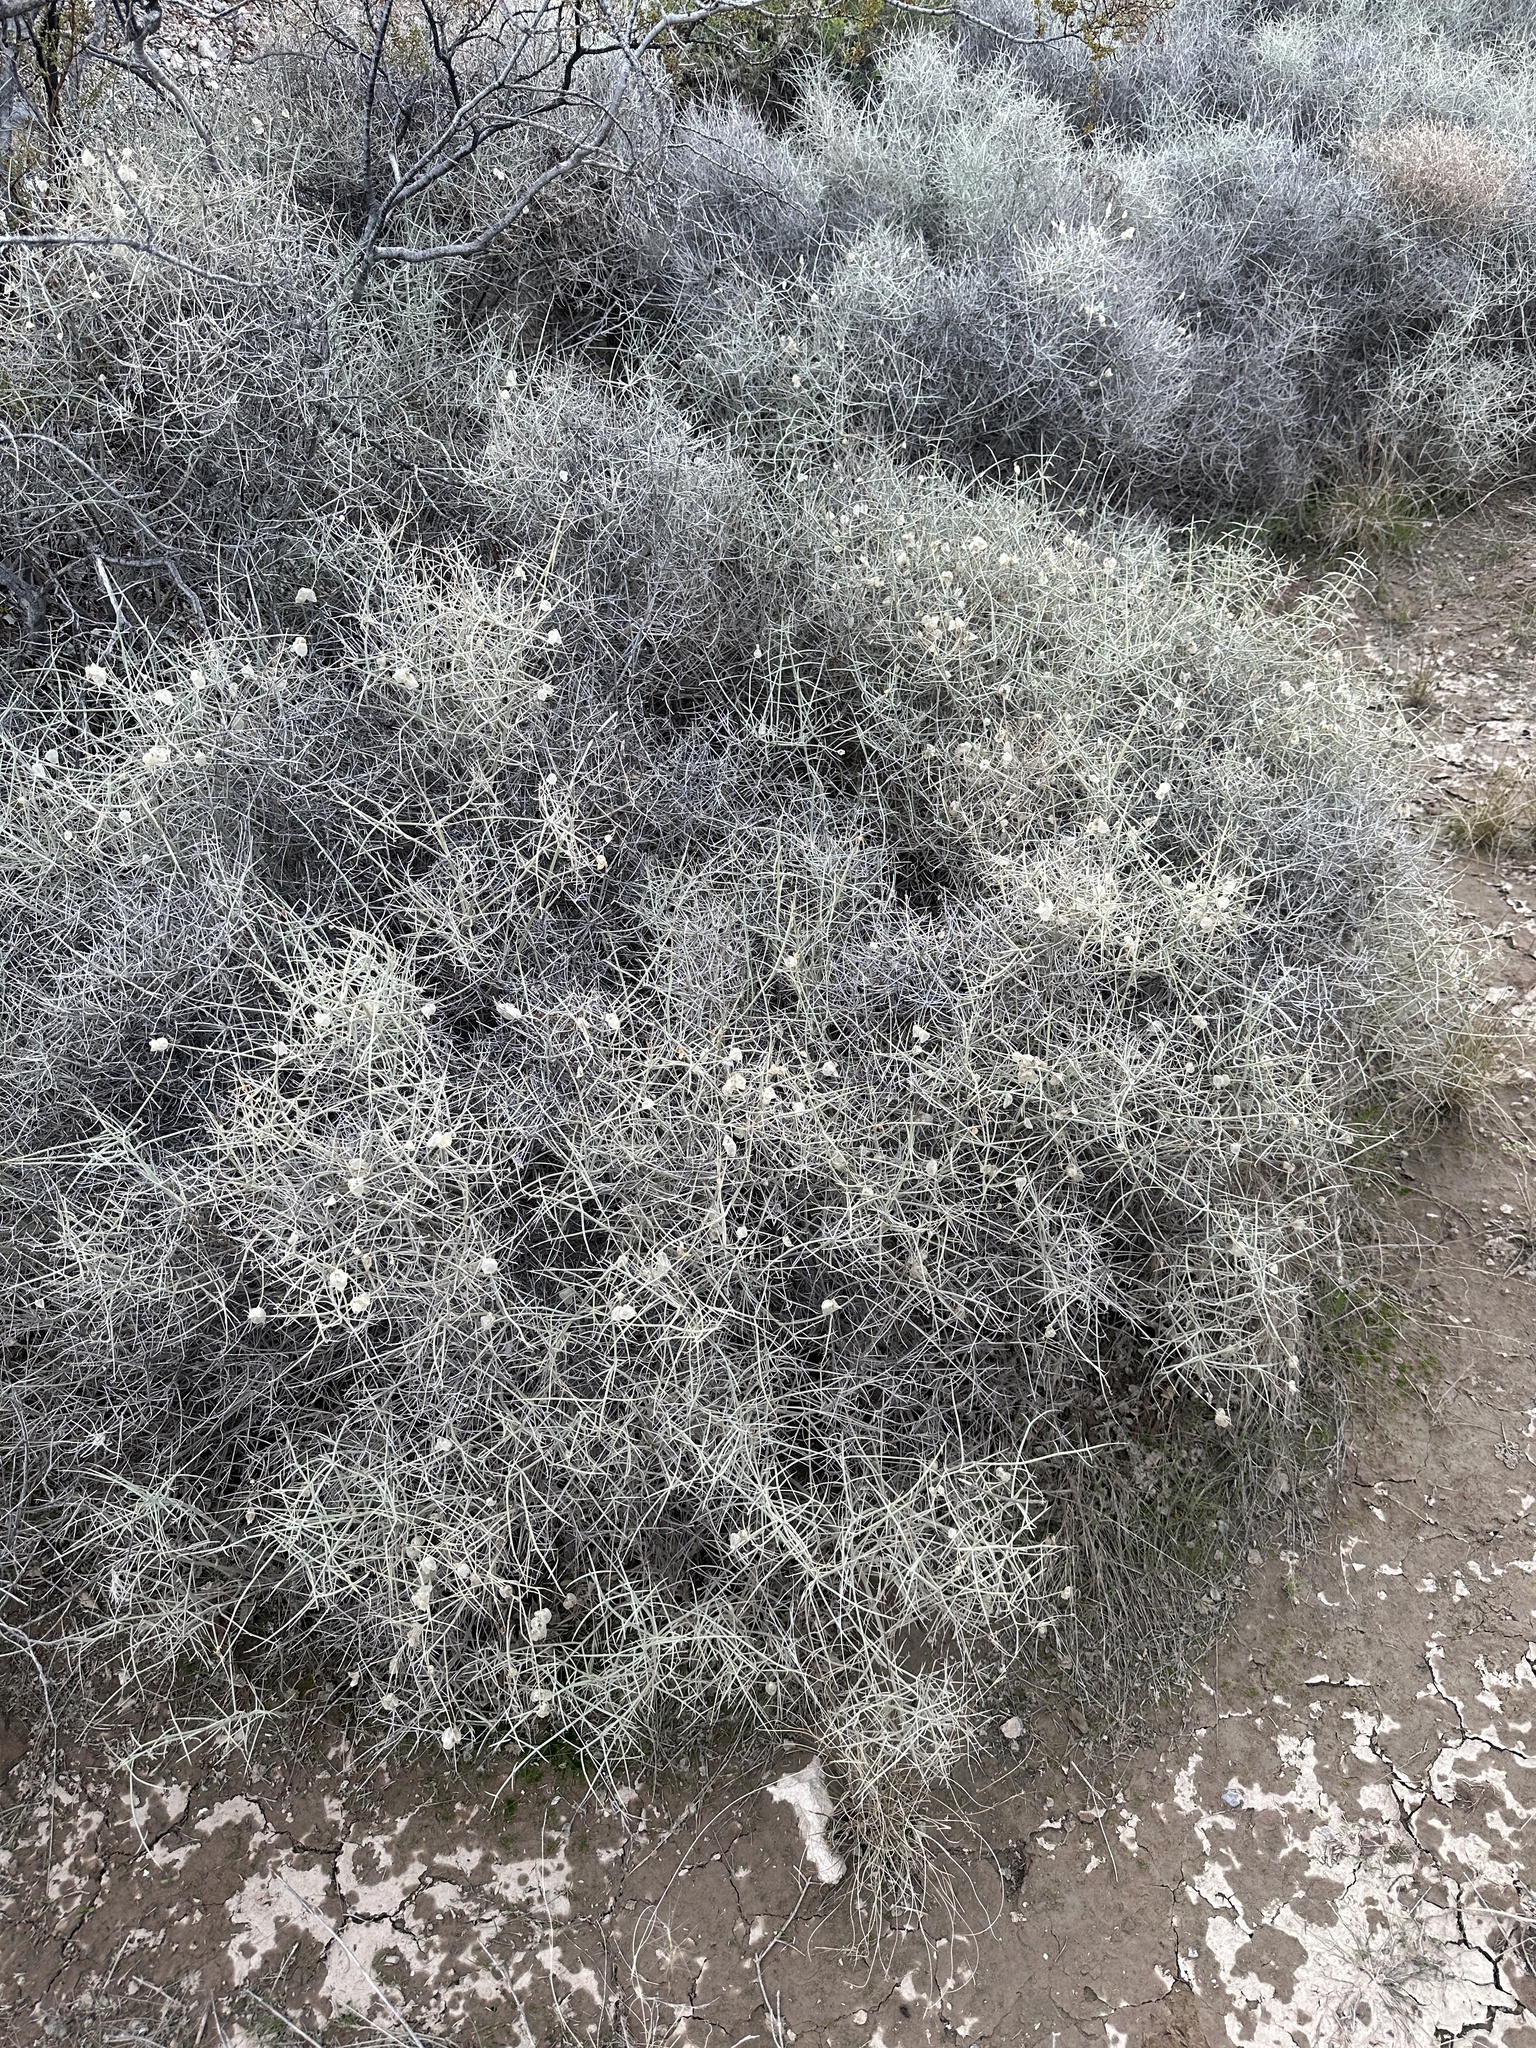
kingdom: Plantae
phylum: Tracheophyta
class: Magnoliopsida
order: Lamiales
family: Lamiaceae
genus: Scutellaria
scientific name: Scutellaria mexicana
